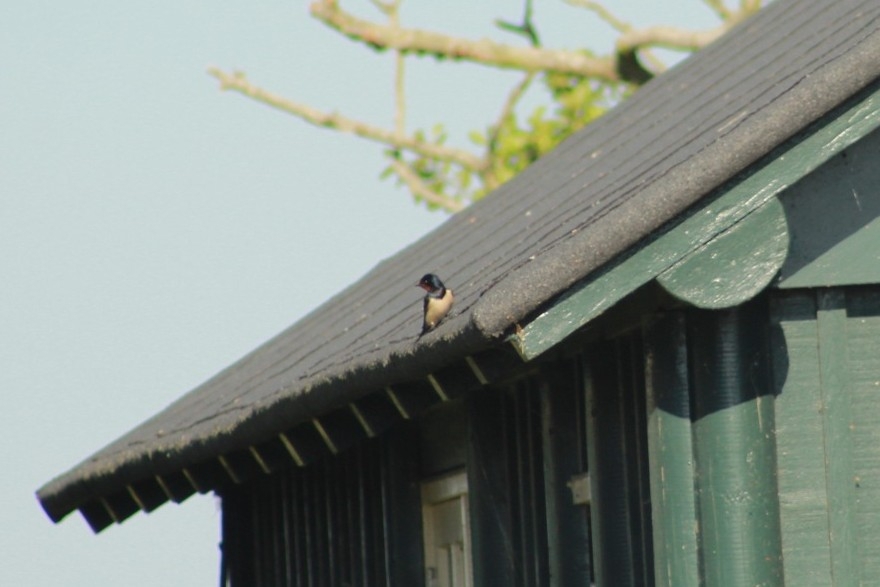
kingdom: Animalia
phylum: Chordata
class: Aves
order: Passeriformes
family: Hirundinidae
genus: Hirundo
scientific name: Hirundo rustica
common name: Barn swallow
